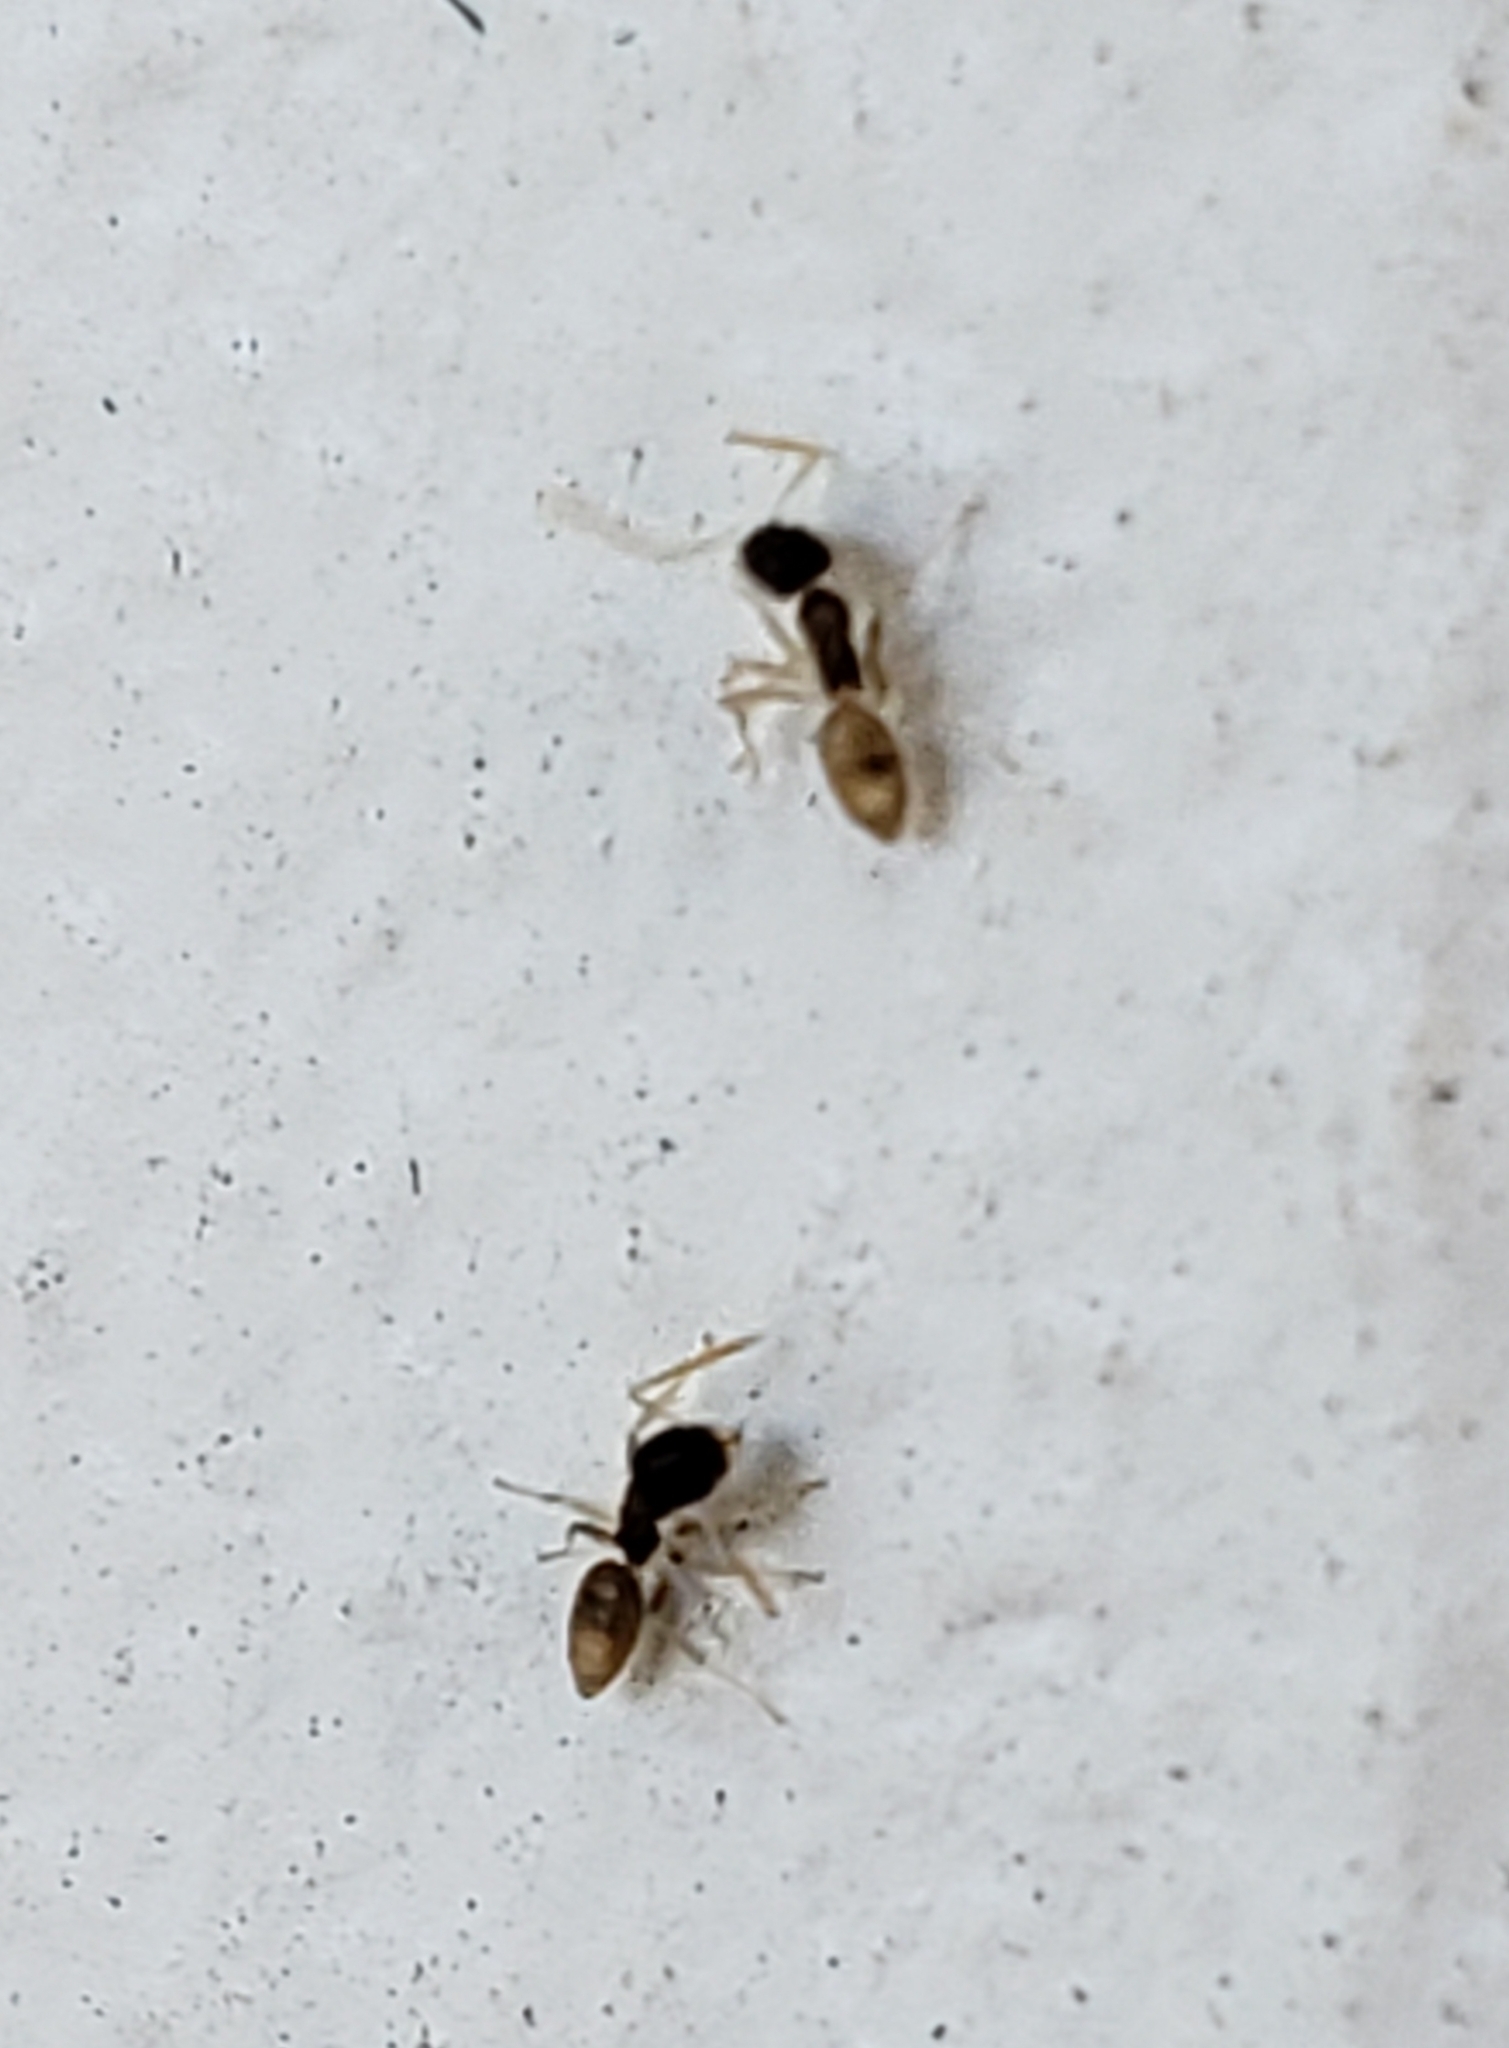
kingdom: Animalia
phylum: Arthropoda
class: Insecta
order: Hymenoptera
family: Formicidae
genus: Tapinoma
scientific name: Tapinoma melanocephalum
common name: Ghost ant
